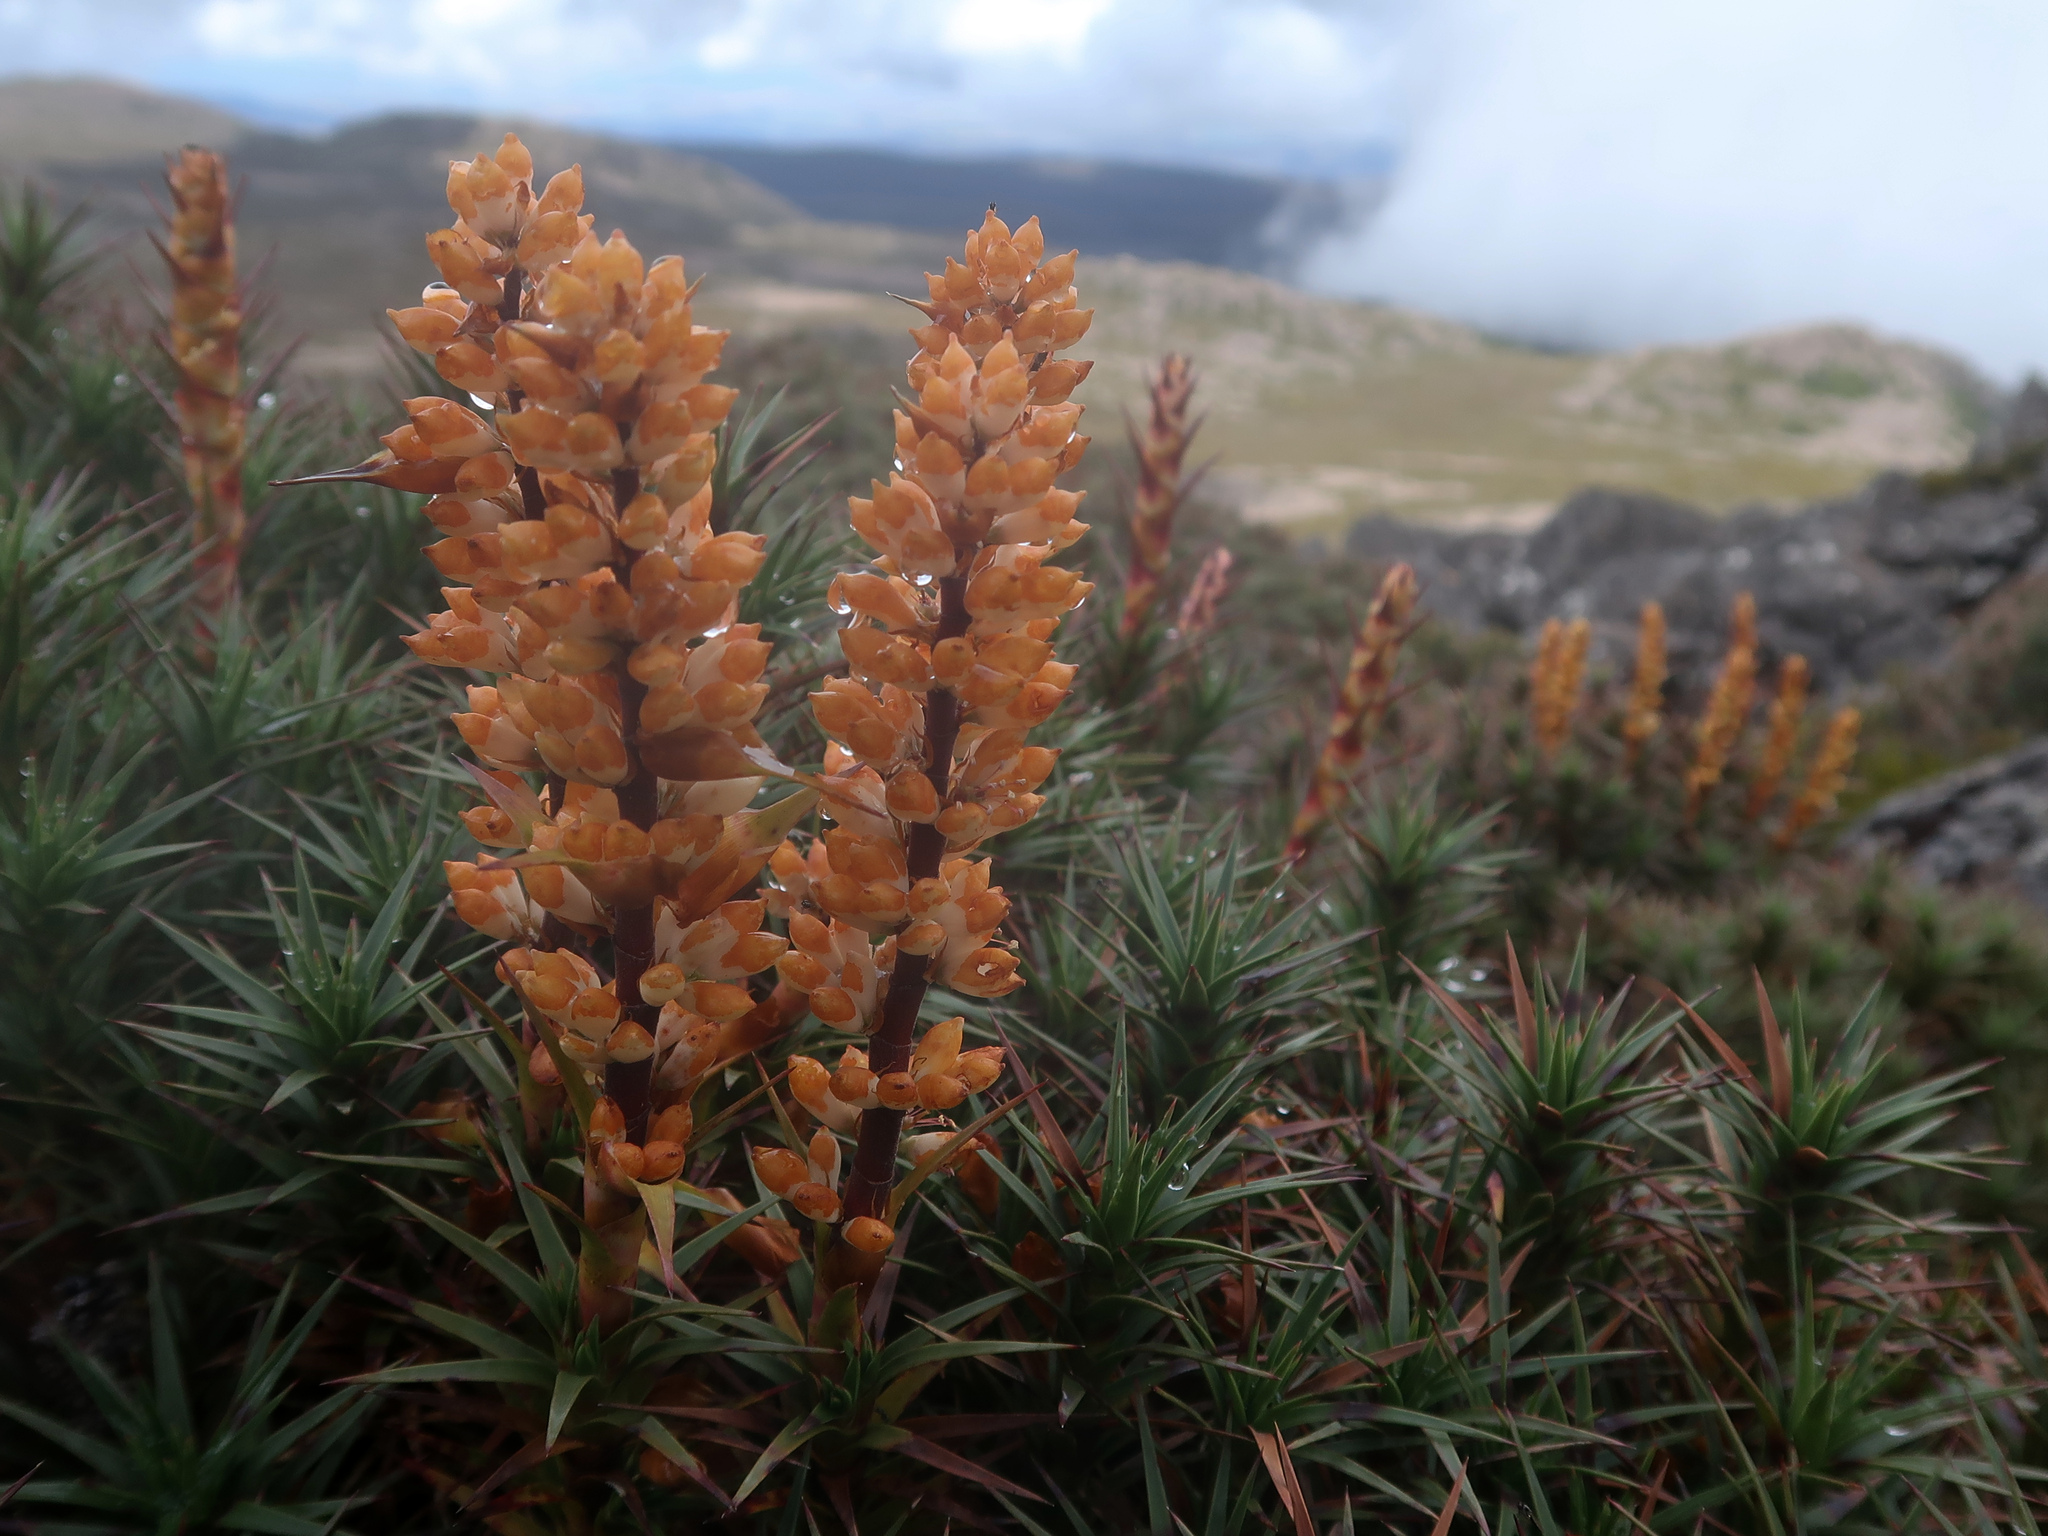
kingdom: Plantae
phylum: Tracheophyta
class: Magnoliopsida
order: Ericales
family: Ericaceae
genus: Dracophyllum
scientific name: Dracophyllum persistentifolium
